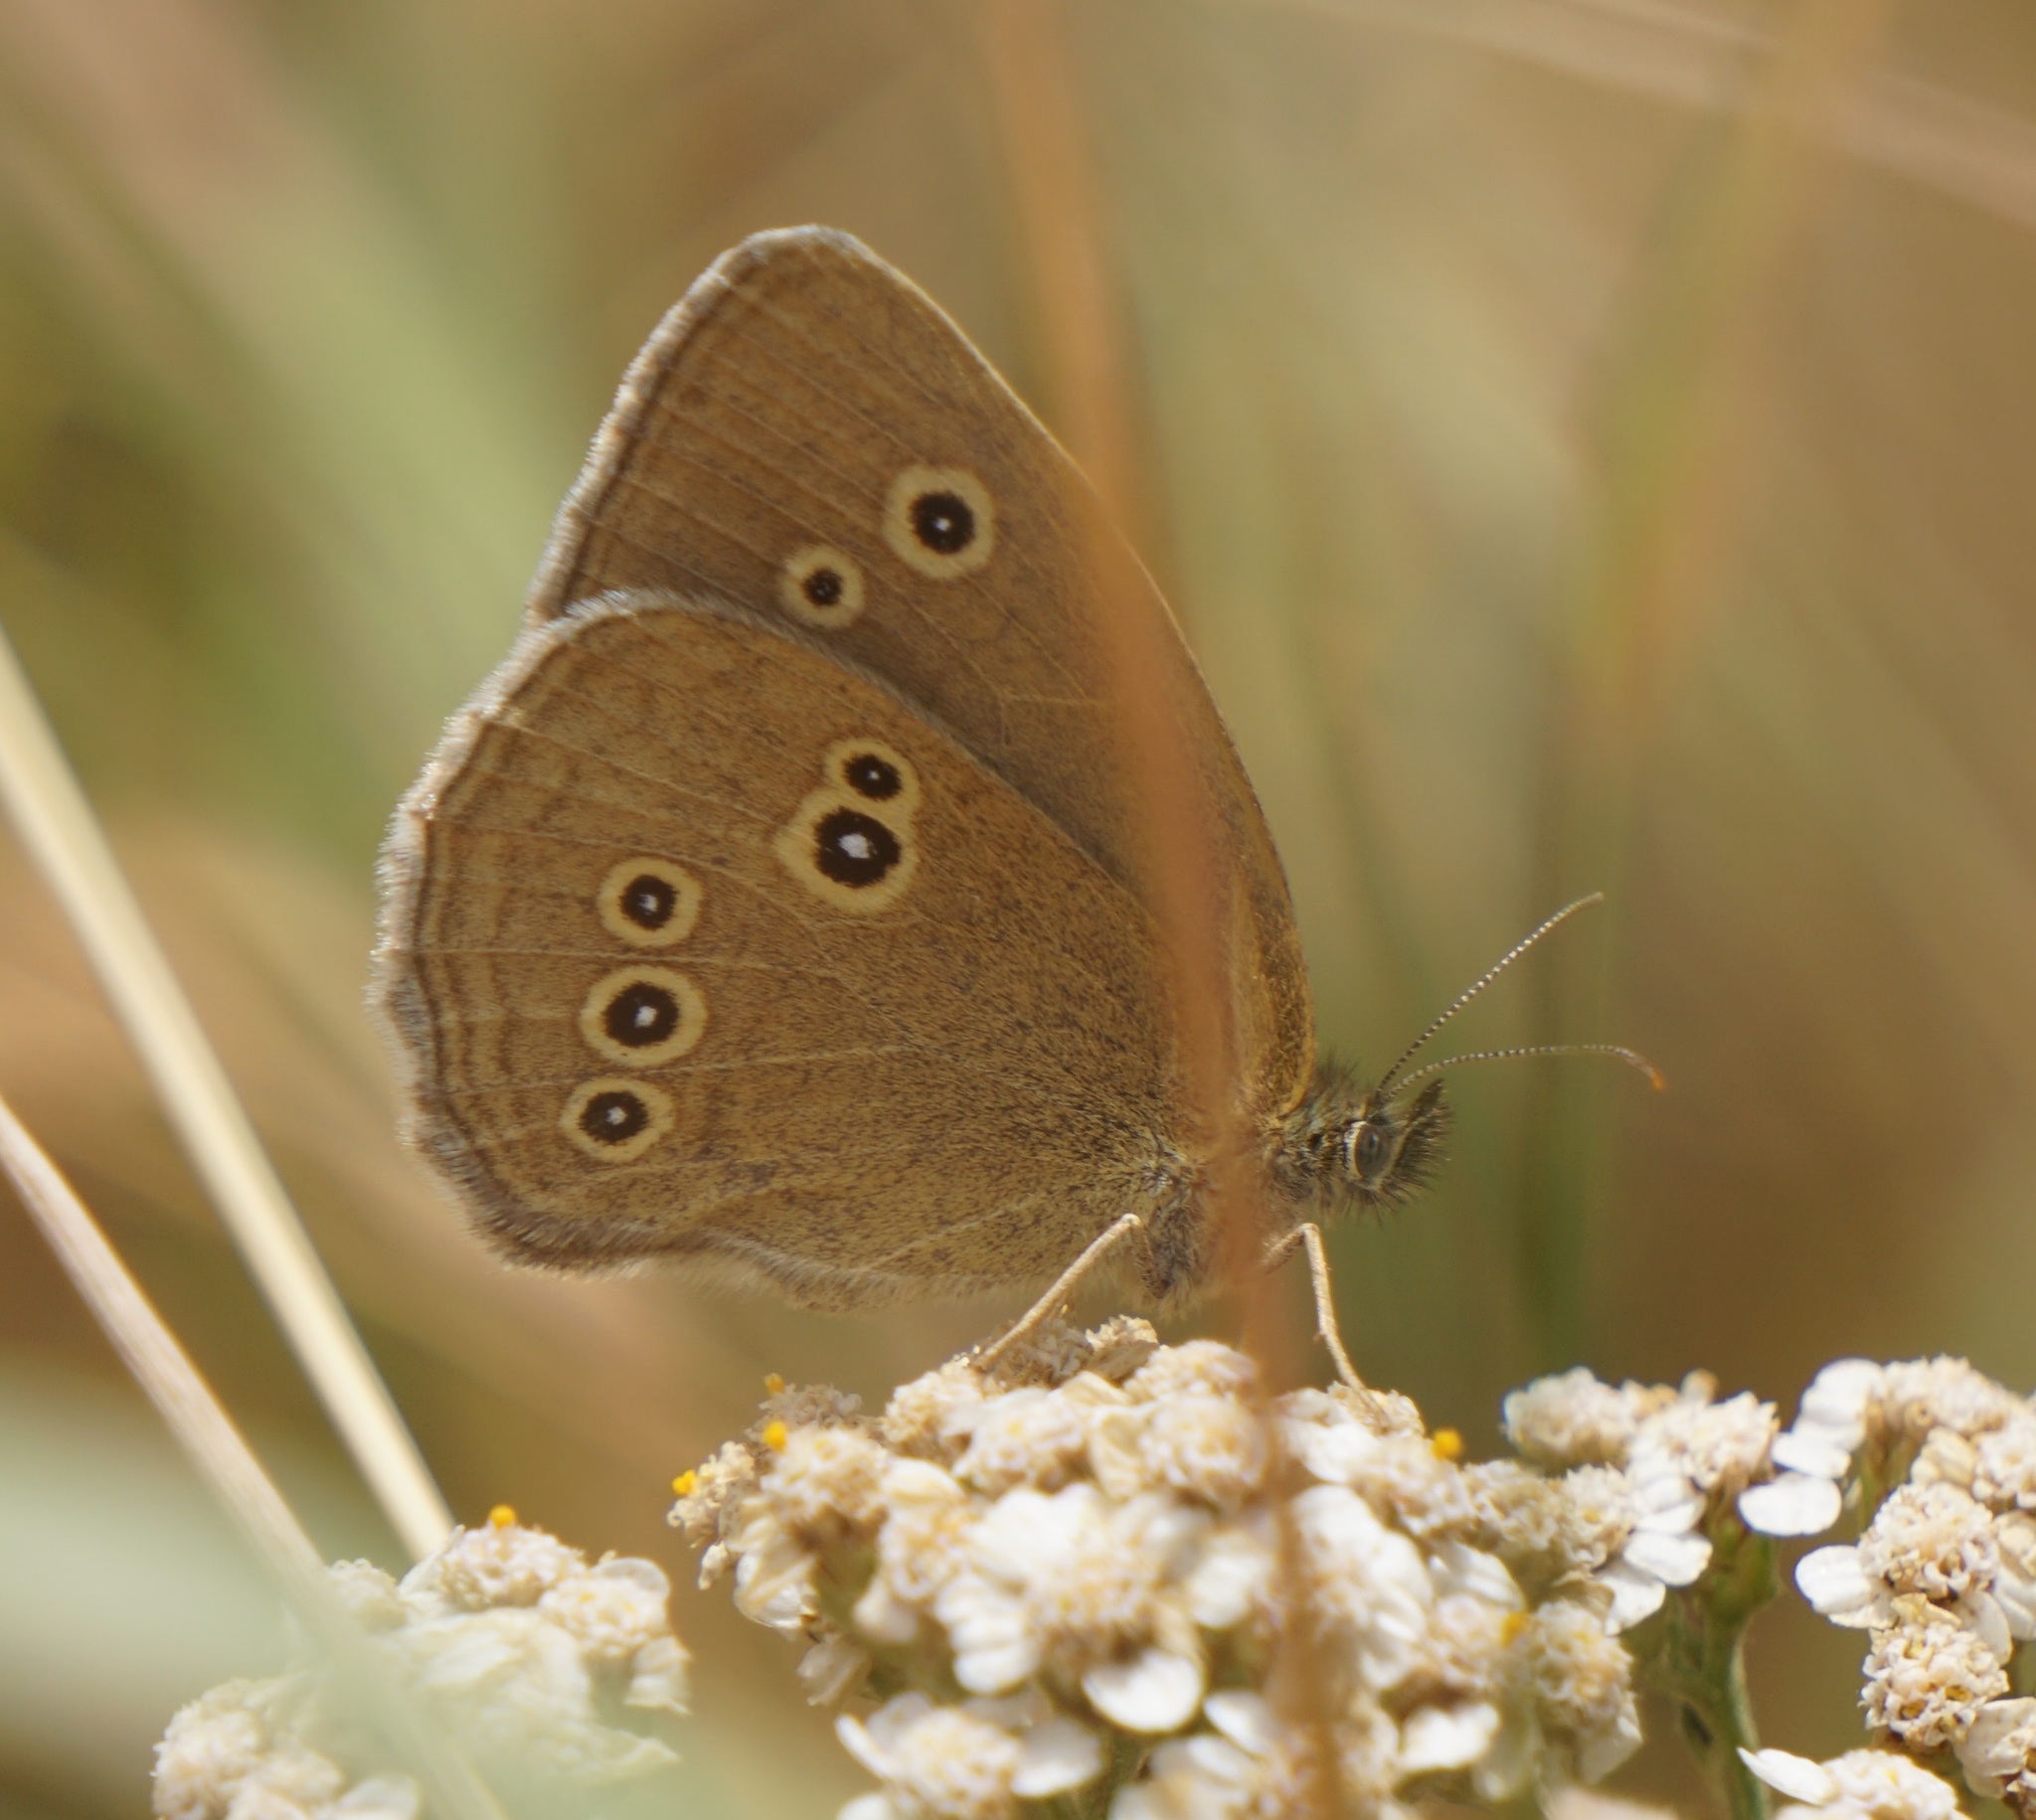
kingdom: Animalia
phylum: Arthropoda
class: Insecta
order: Lepidoptera
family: Nymphalidae
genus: Aphantopus
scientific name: Aphantopus hyperantus
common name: Ringlet
